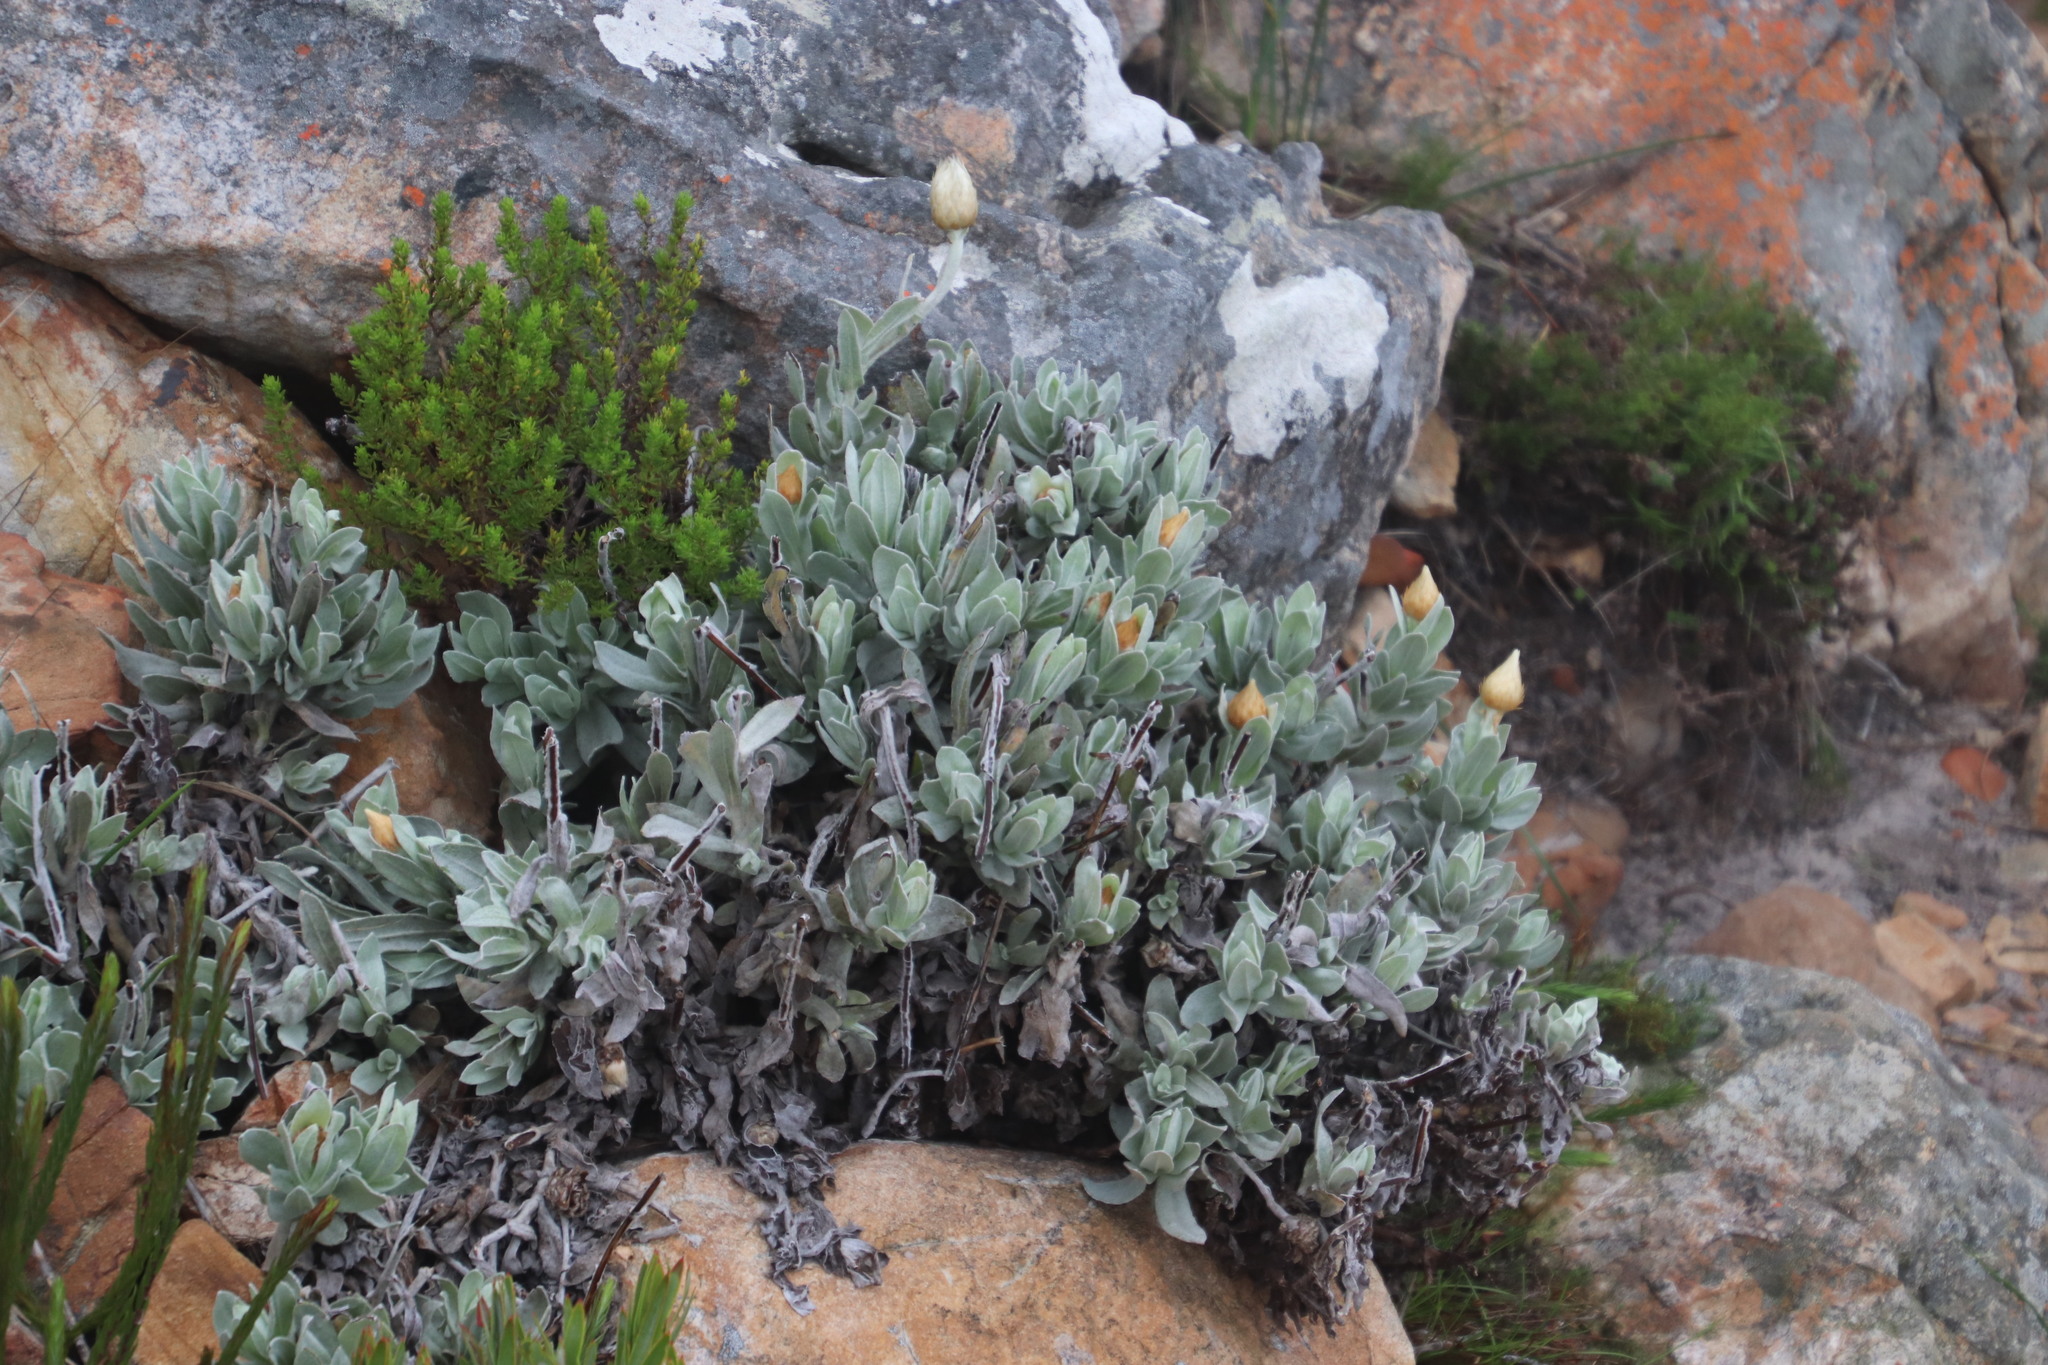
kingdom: Plantae
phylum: Tracheophyta
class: Magnoliopsida
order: Asterales
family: Asteraceae
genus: Syncarpha
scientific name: Syncarpha speciosissima
